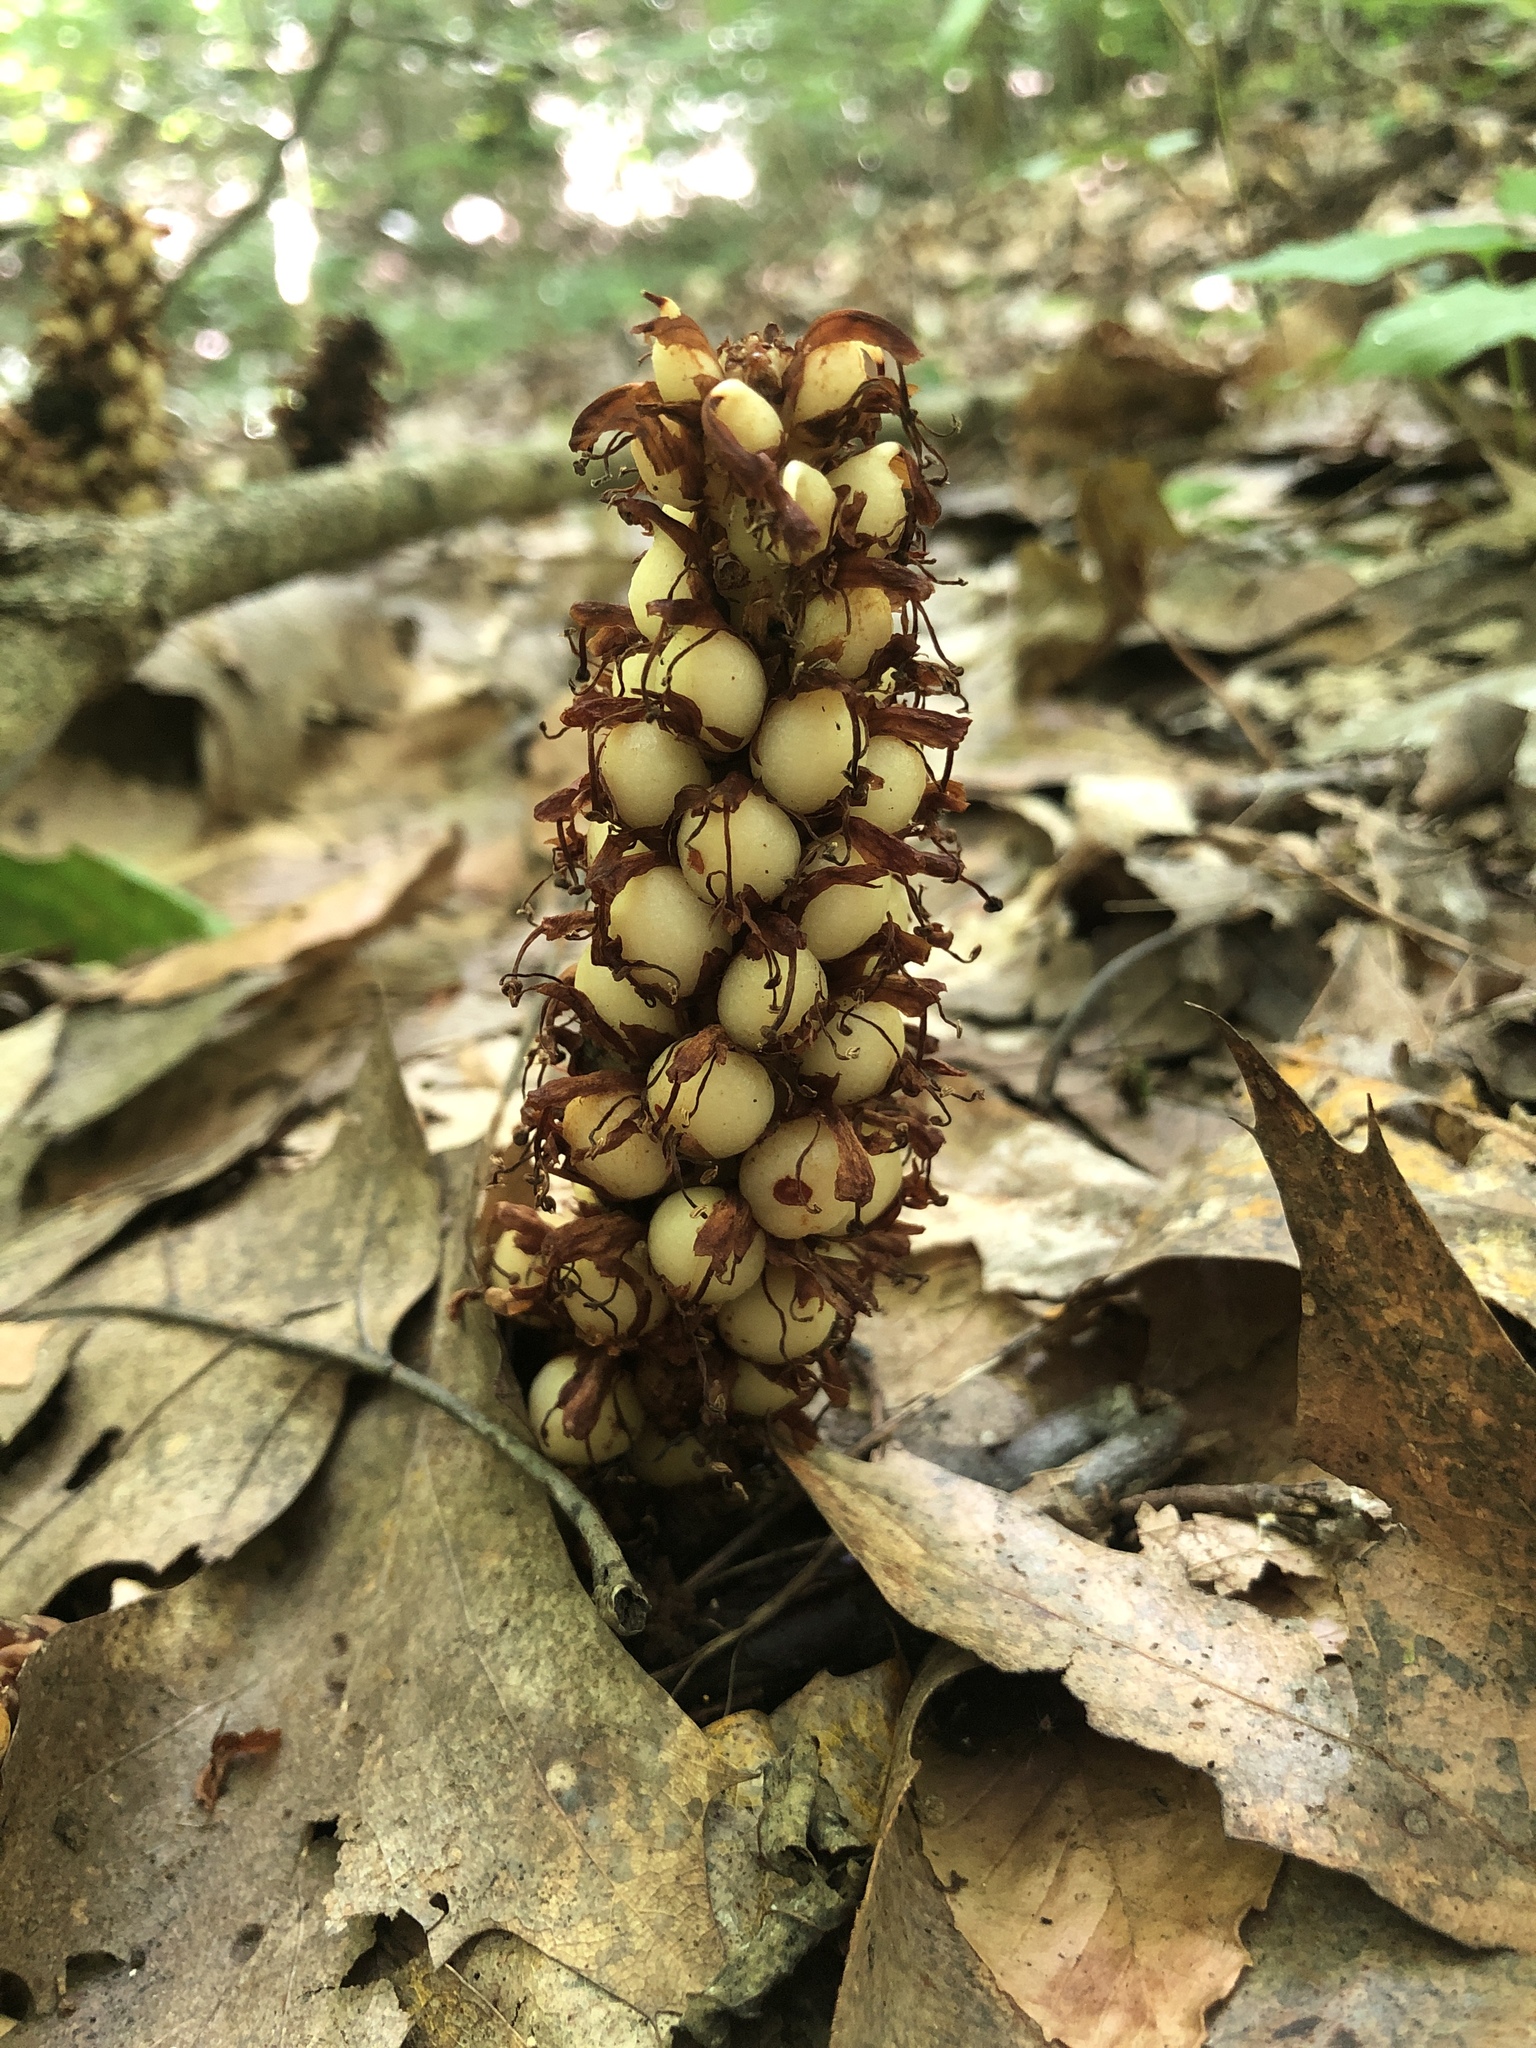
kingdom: Plantae
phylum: Tracheophyta
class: Magnoliopsida
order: Lamiales
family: Orobanchaceae
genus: Conopholis
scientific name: Conopholis americana
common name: American cancer-root
